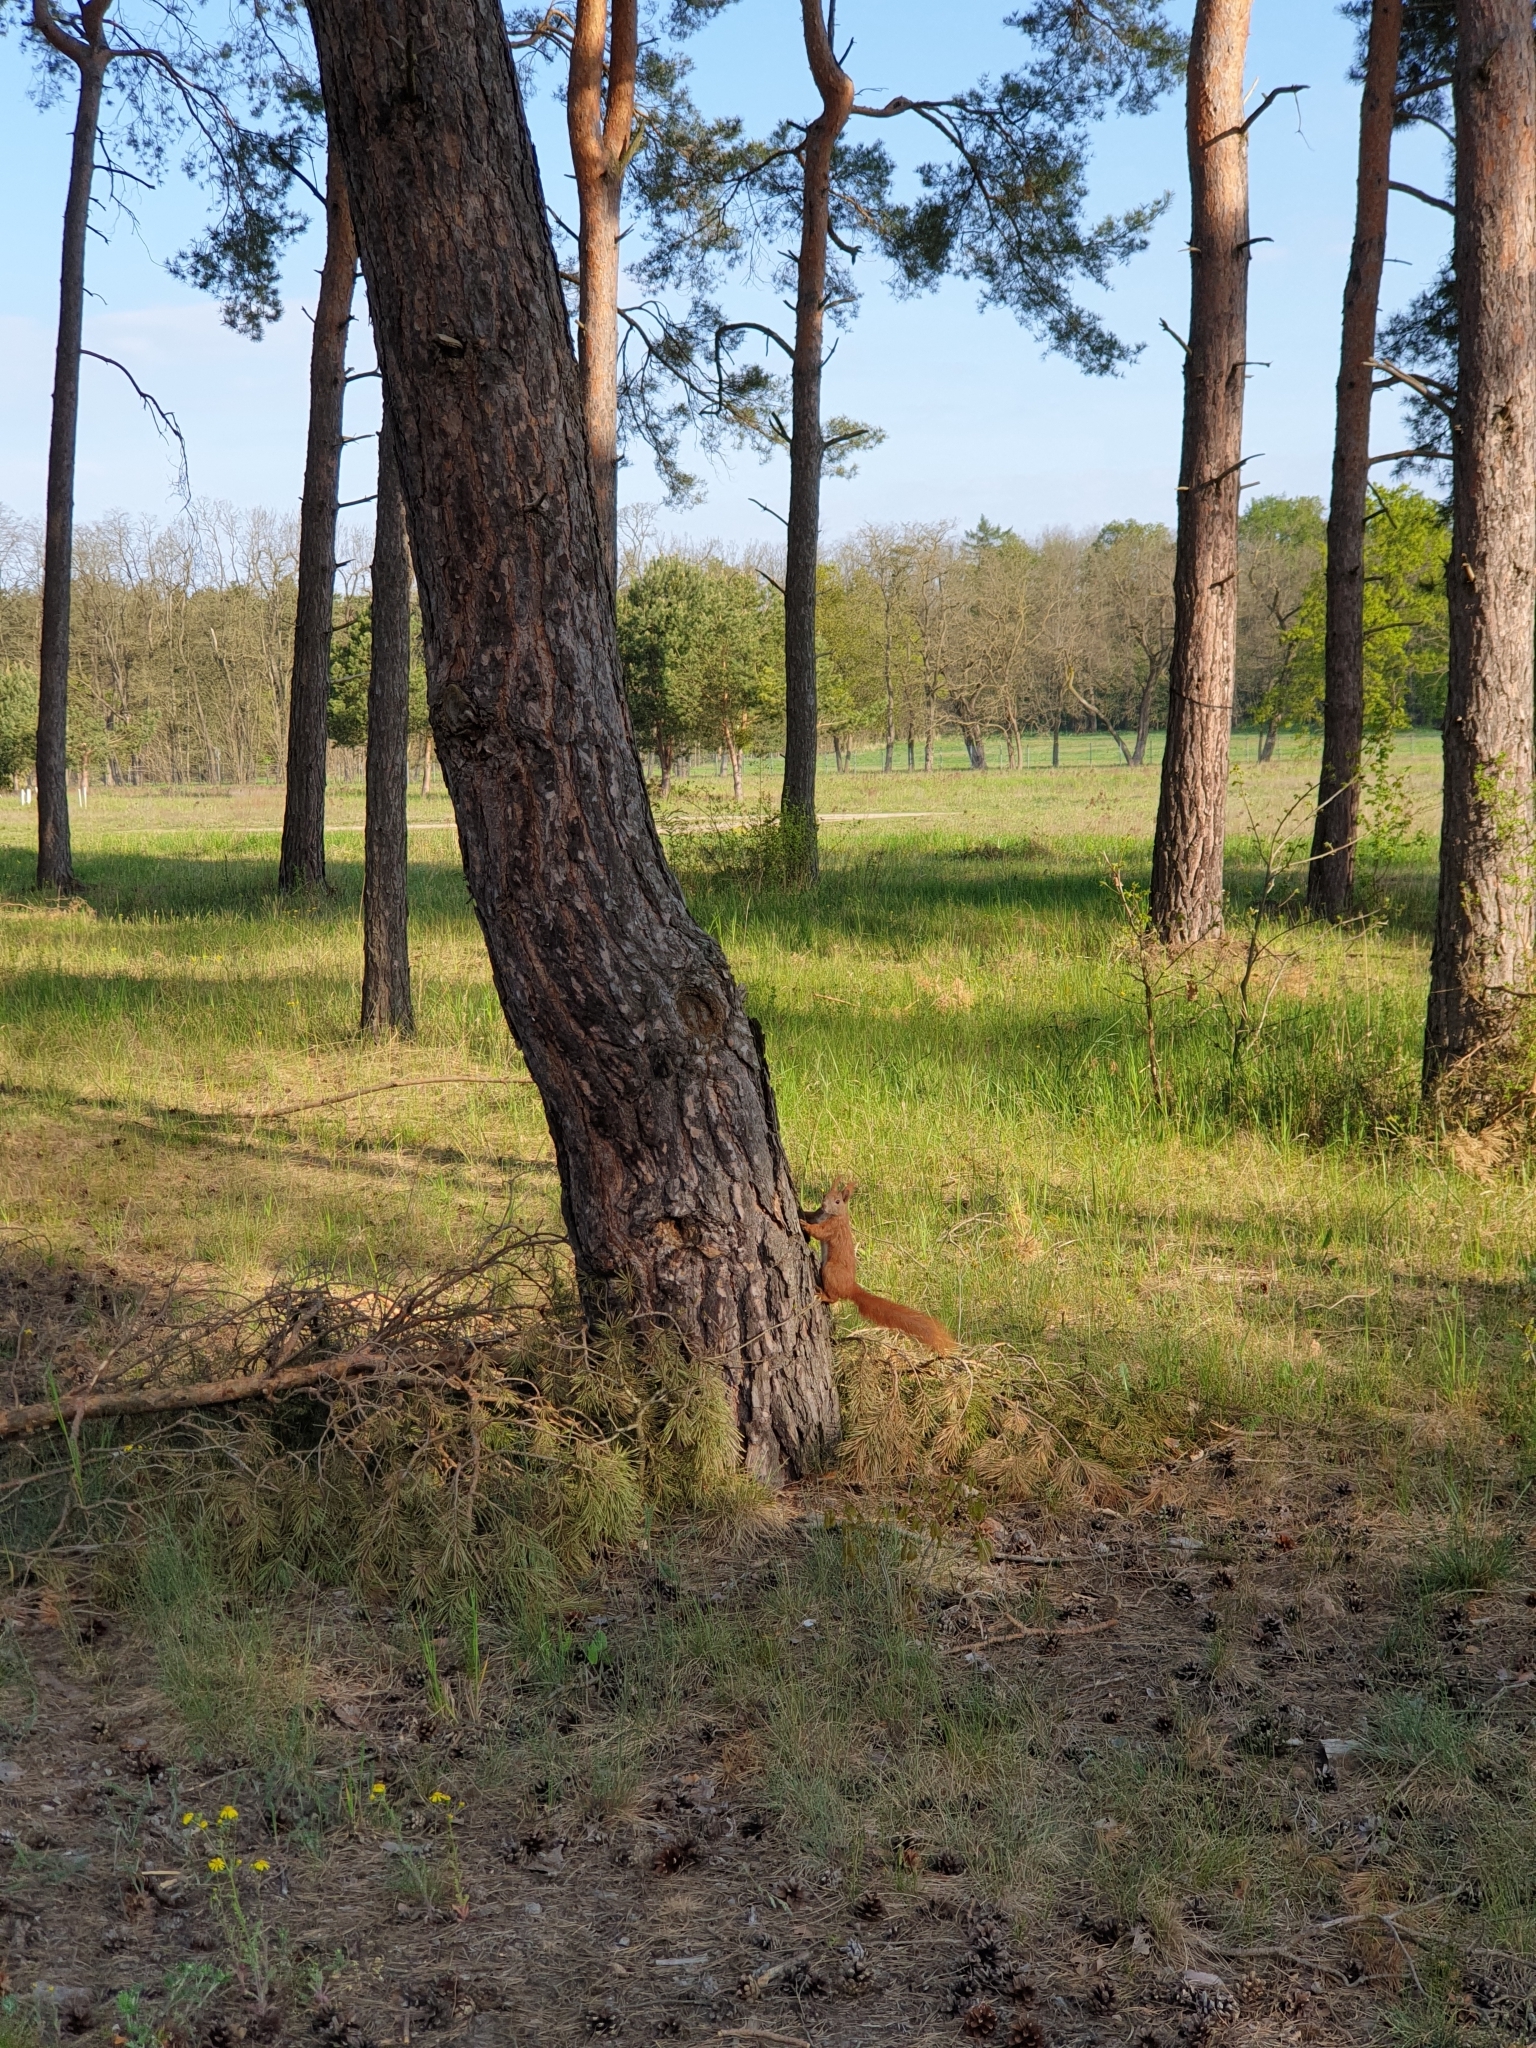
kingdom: Animalia
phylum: Chordata
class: Mammalia
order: Rodentia
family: Sciuridae
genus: Sciurus
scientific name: Sciurus vulgaris
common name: Eurasian red squirrel
